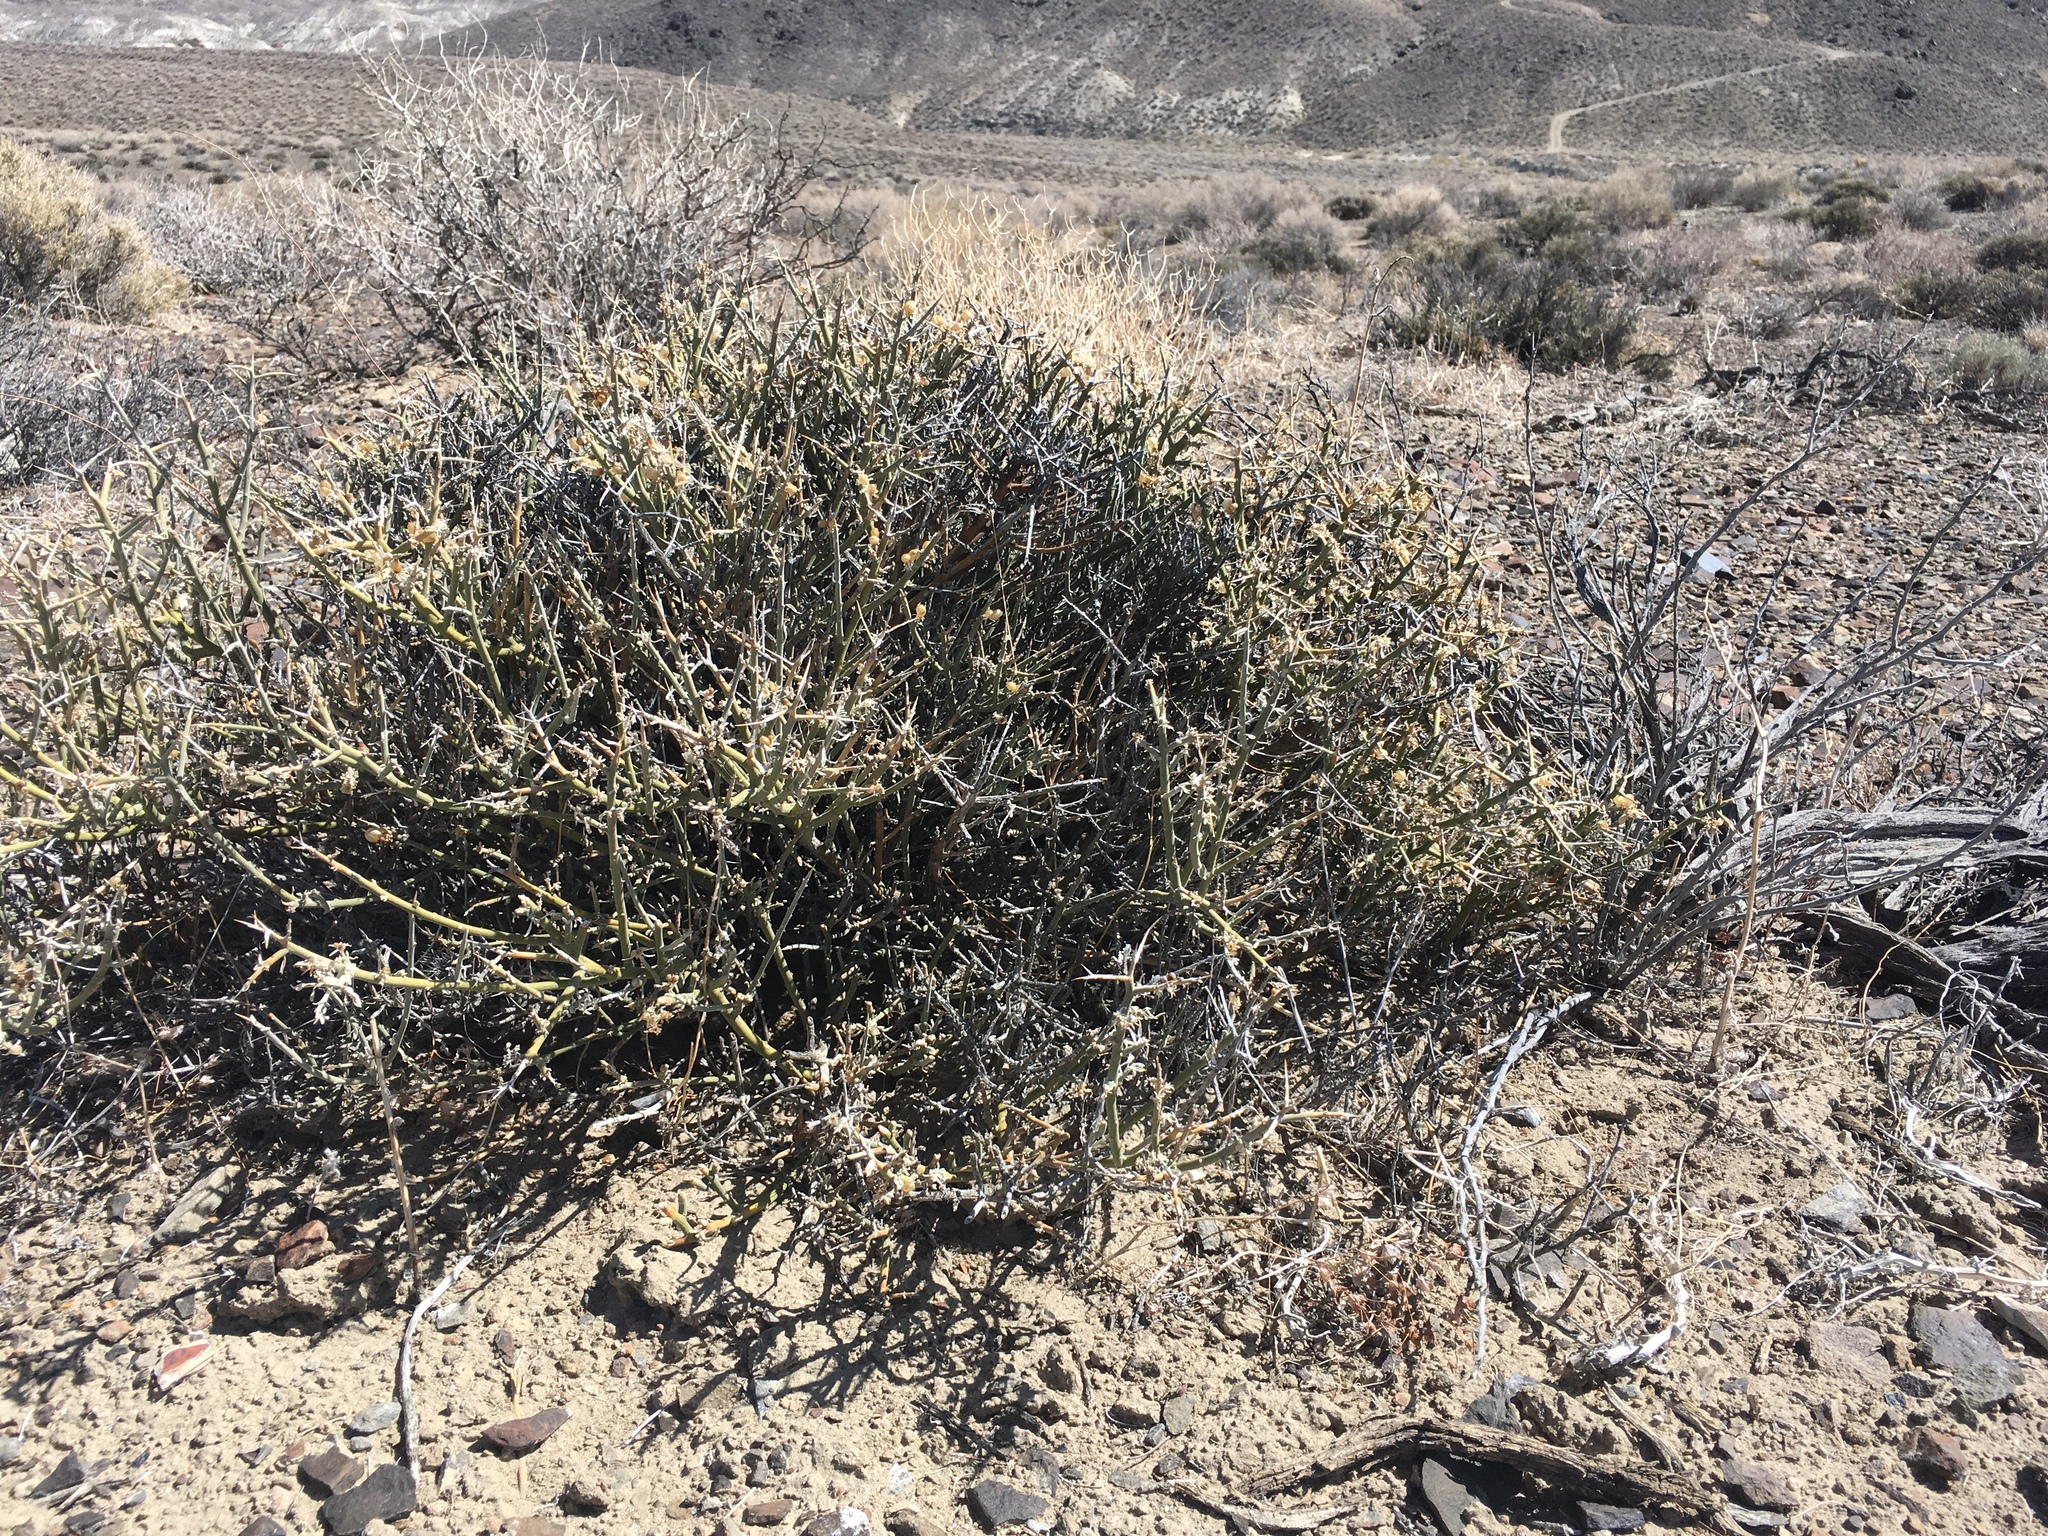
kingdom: Plantae
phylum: Tracheophyta
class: Magnoliopsida
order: Lamiales
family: Oleaceae
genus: Menodora
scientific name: Menodora spinescens
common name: Spiny menodora
